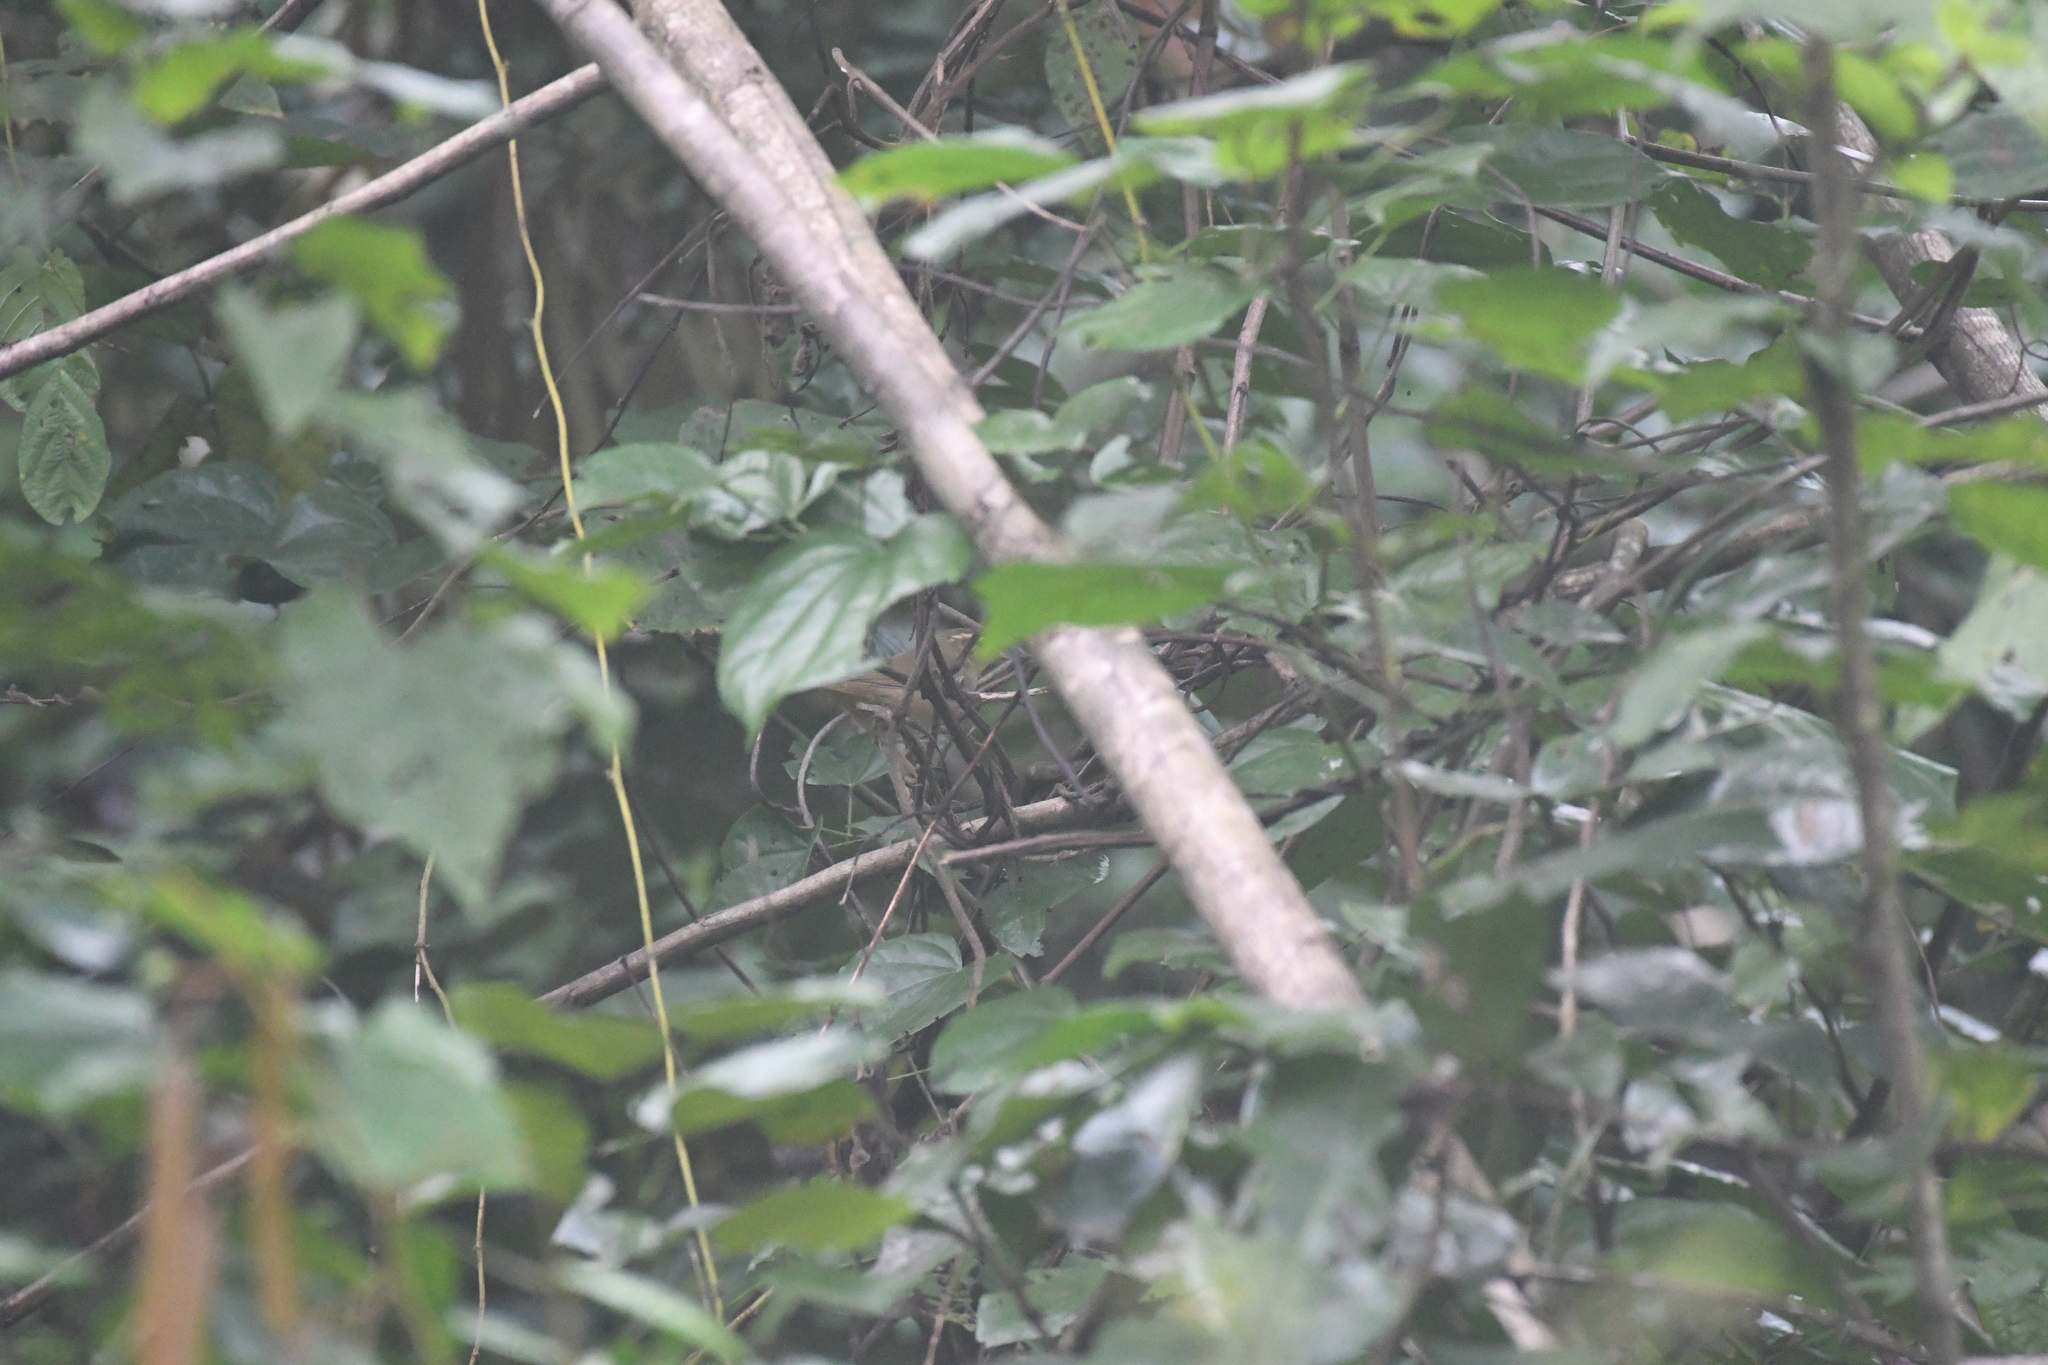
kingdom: Animalia
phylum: Chordata
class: Aves
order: Passeriformes
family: Phylloscopidae
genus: Phylloscopus
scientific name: Phylloscopus schwarzi
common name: Radde's warbler
